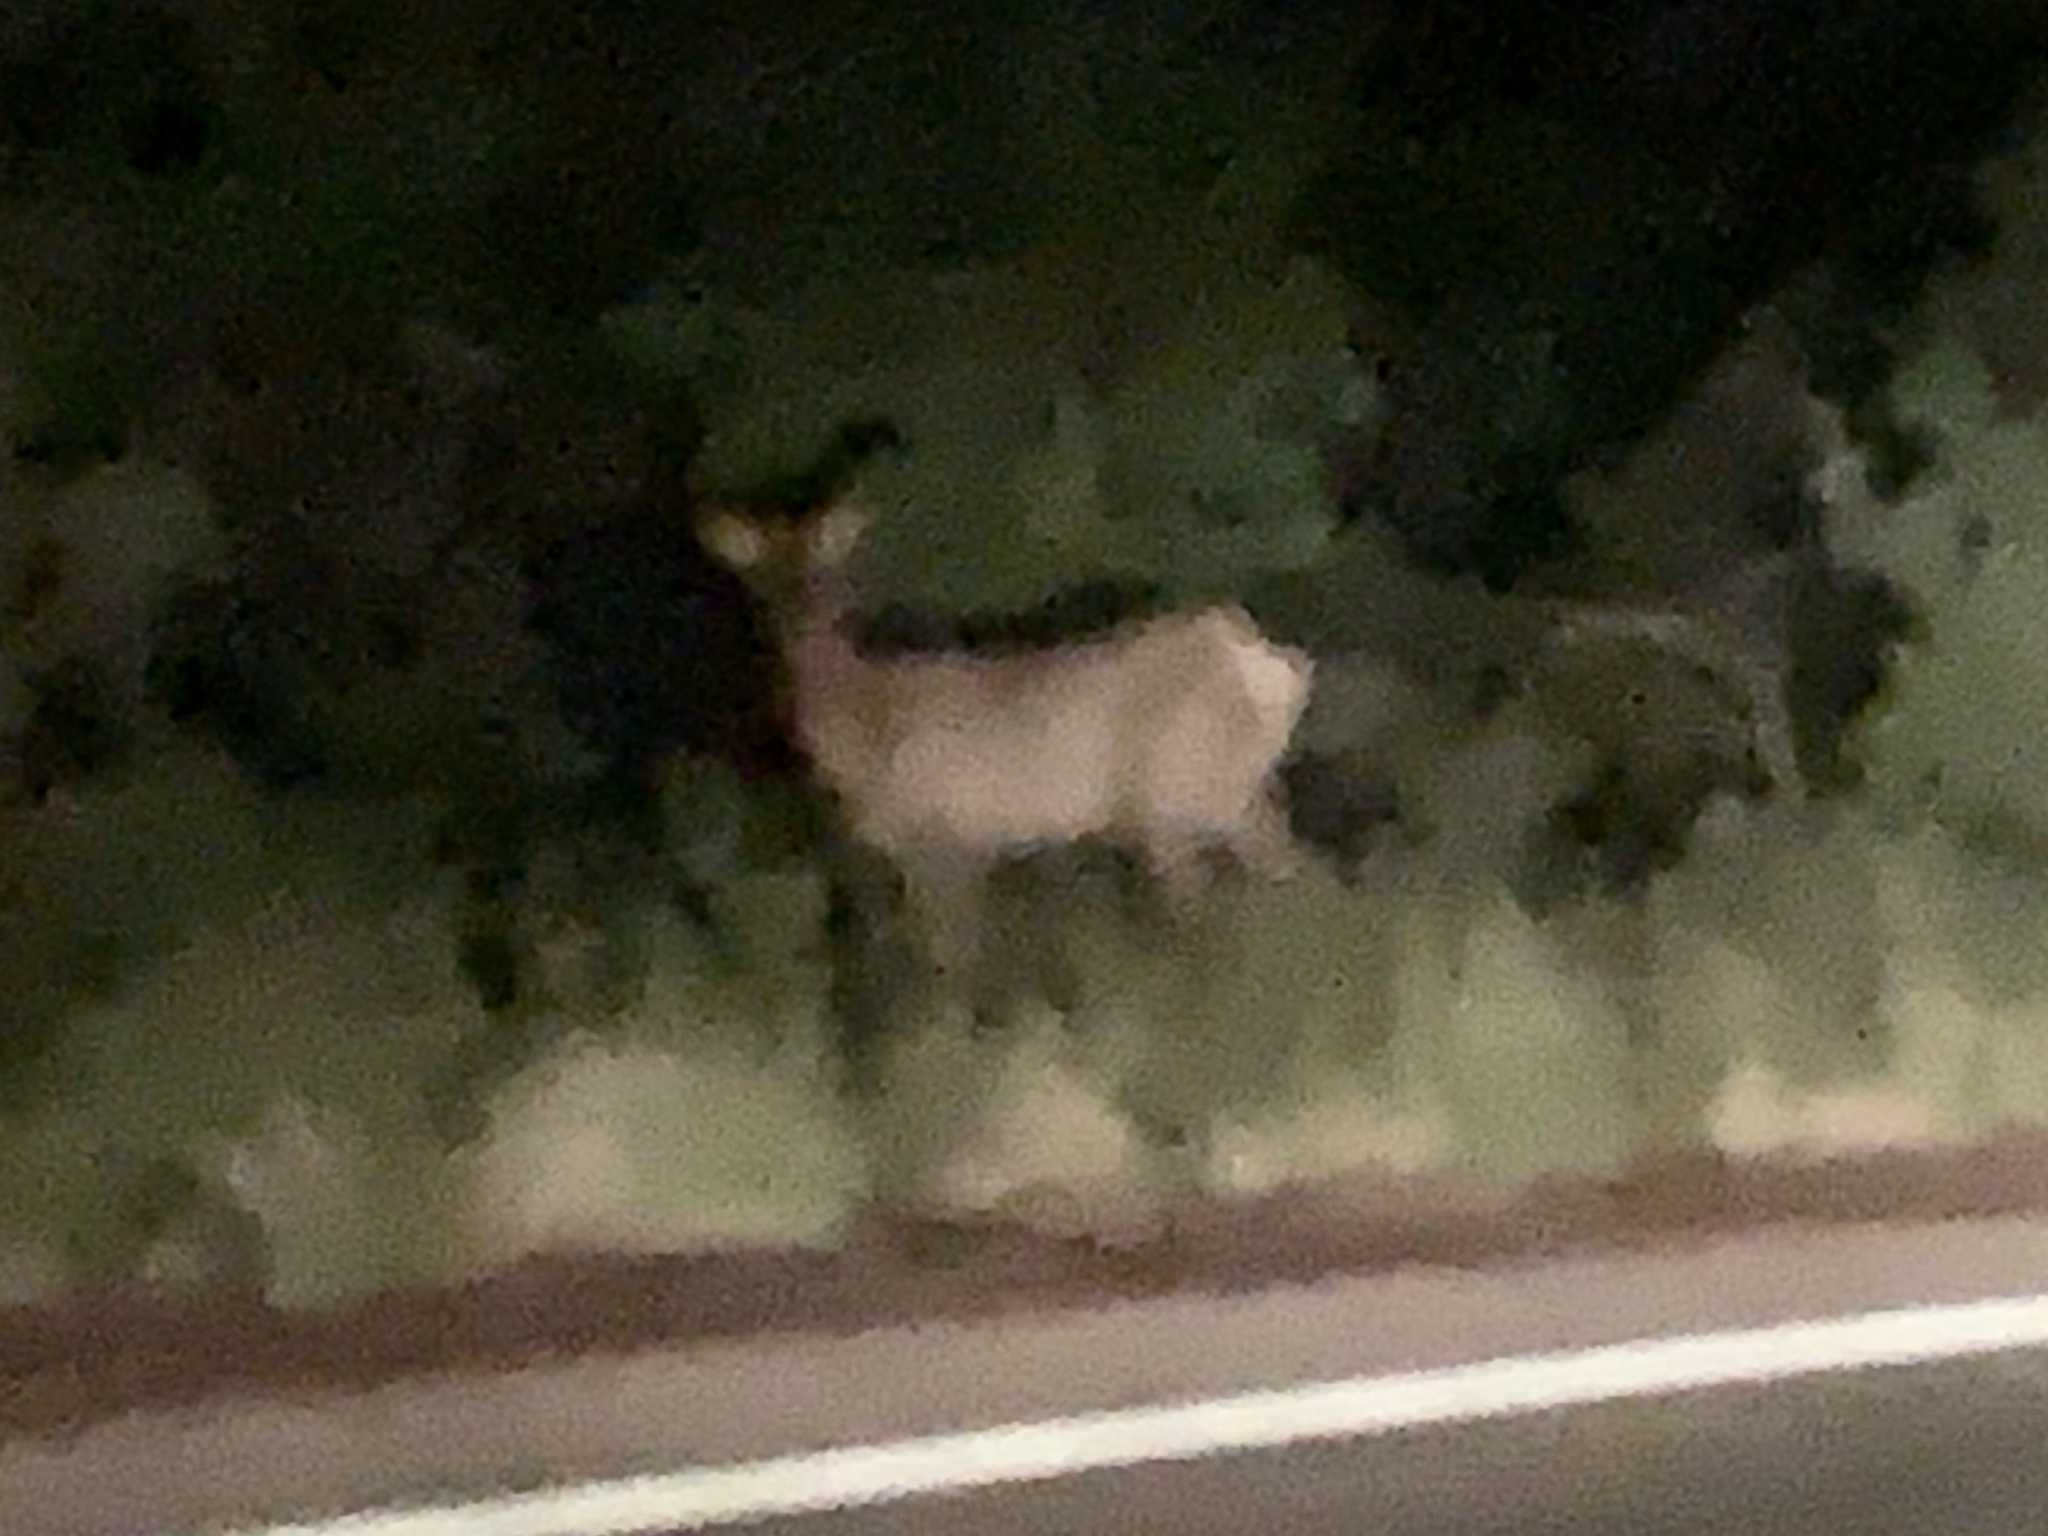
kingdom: Animalia
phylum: Chordata
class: Mammalia
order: Artiodactyla
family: Cervidae
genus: Cervus
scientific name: Cervus elaphus
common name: Red deer
